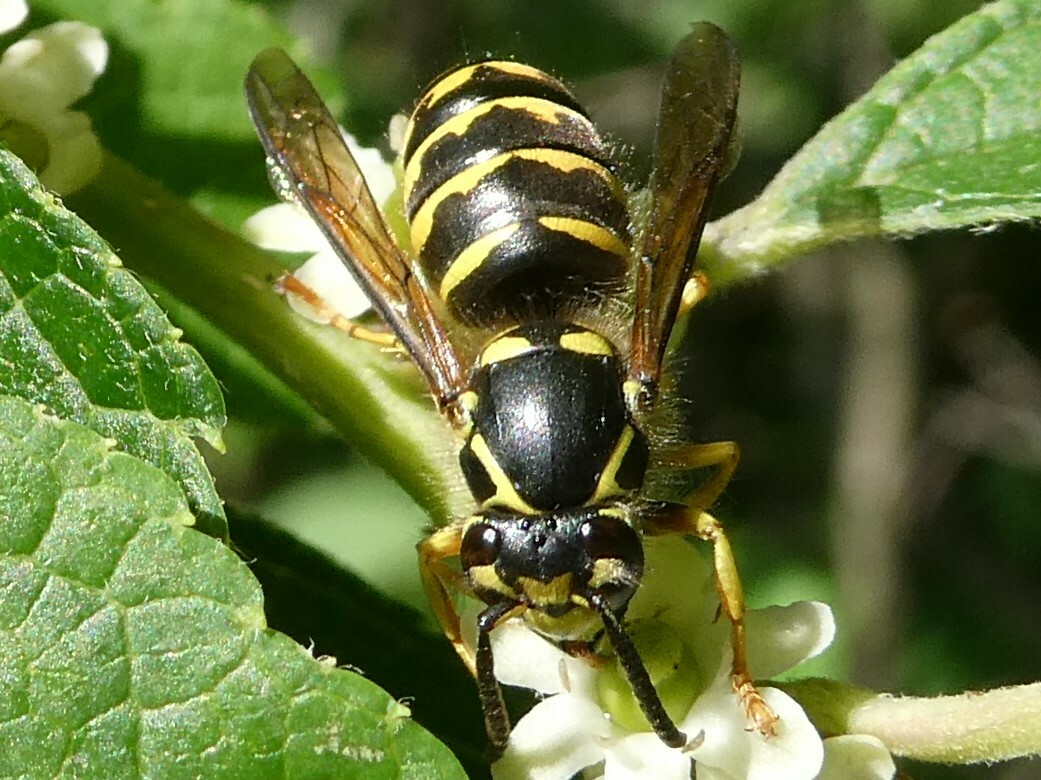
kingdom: Animalia
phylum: Arthropoda
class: Insecta
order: Hymenoptera
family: Vespidae
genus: Dolichovespula
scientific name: Dolichovespula arenaria
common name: Aerial yellowjacket
